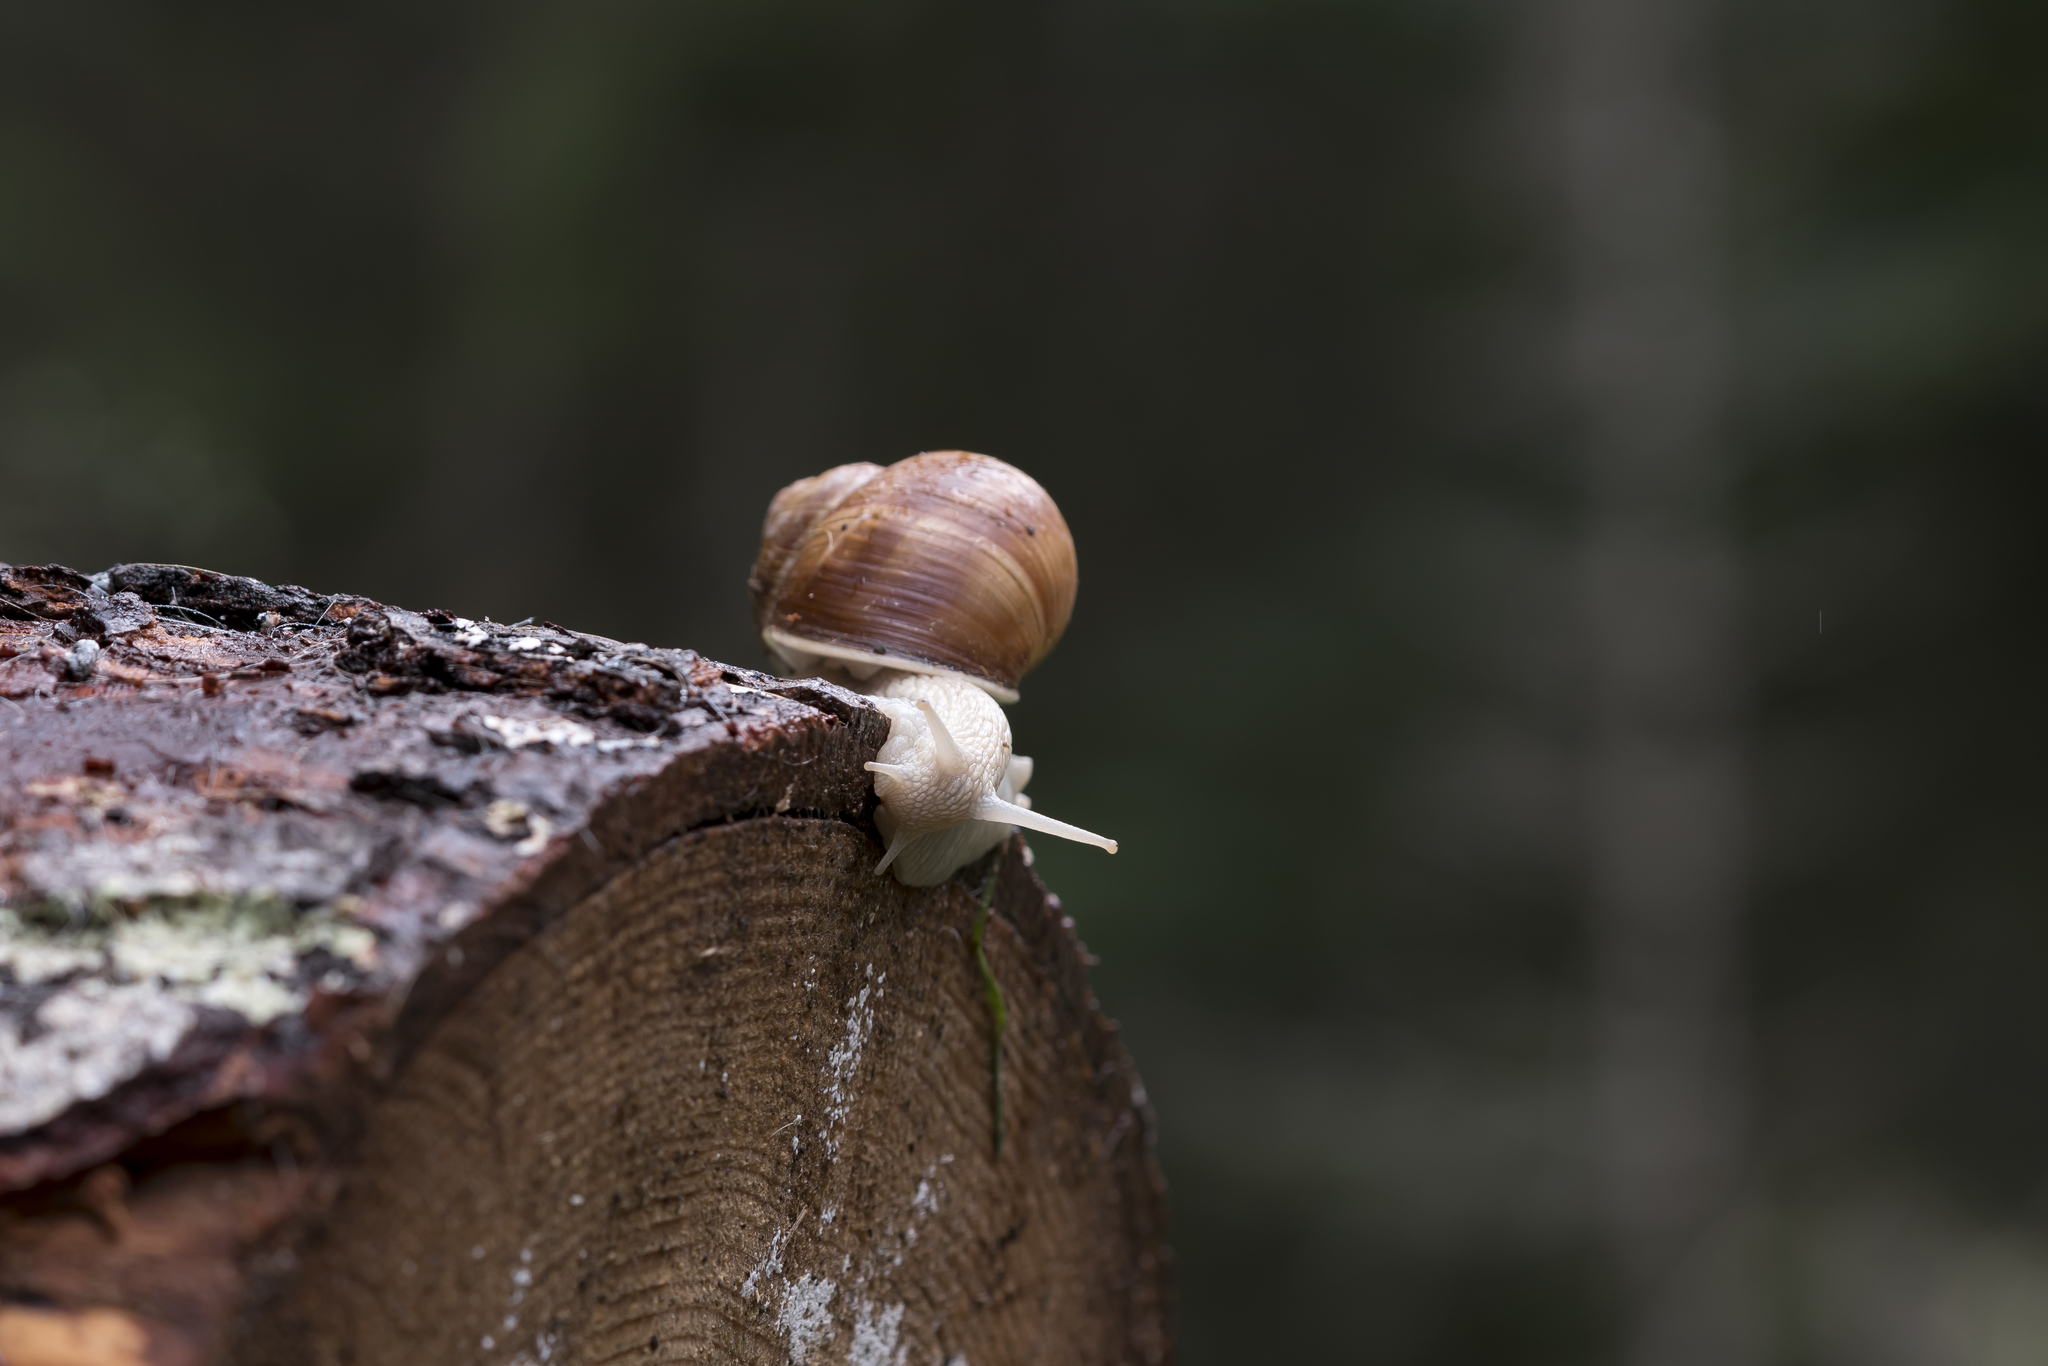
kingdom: Animalia
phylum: Mollusca
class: Gastropoda
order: Stylommatophora
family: Helicidae
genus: Helix
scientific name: Helix pomatia
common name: Roman snail
